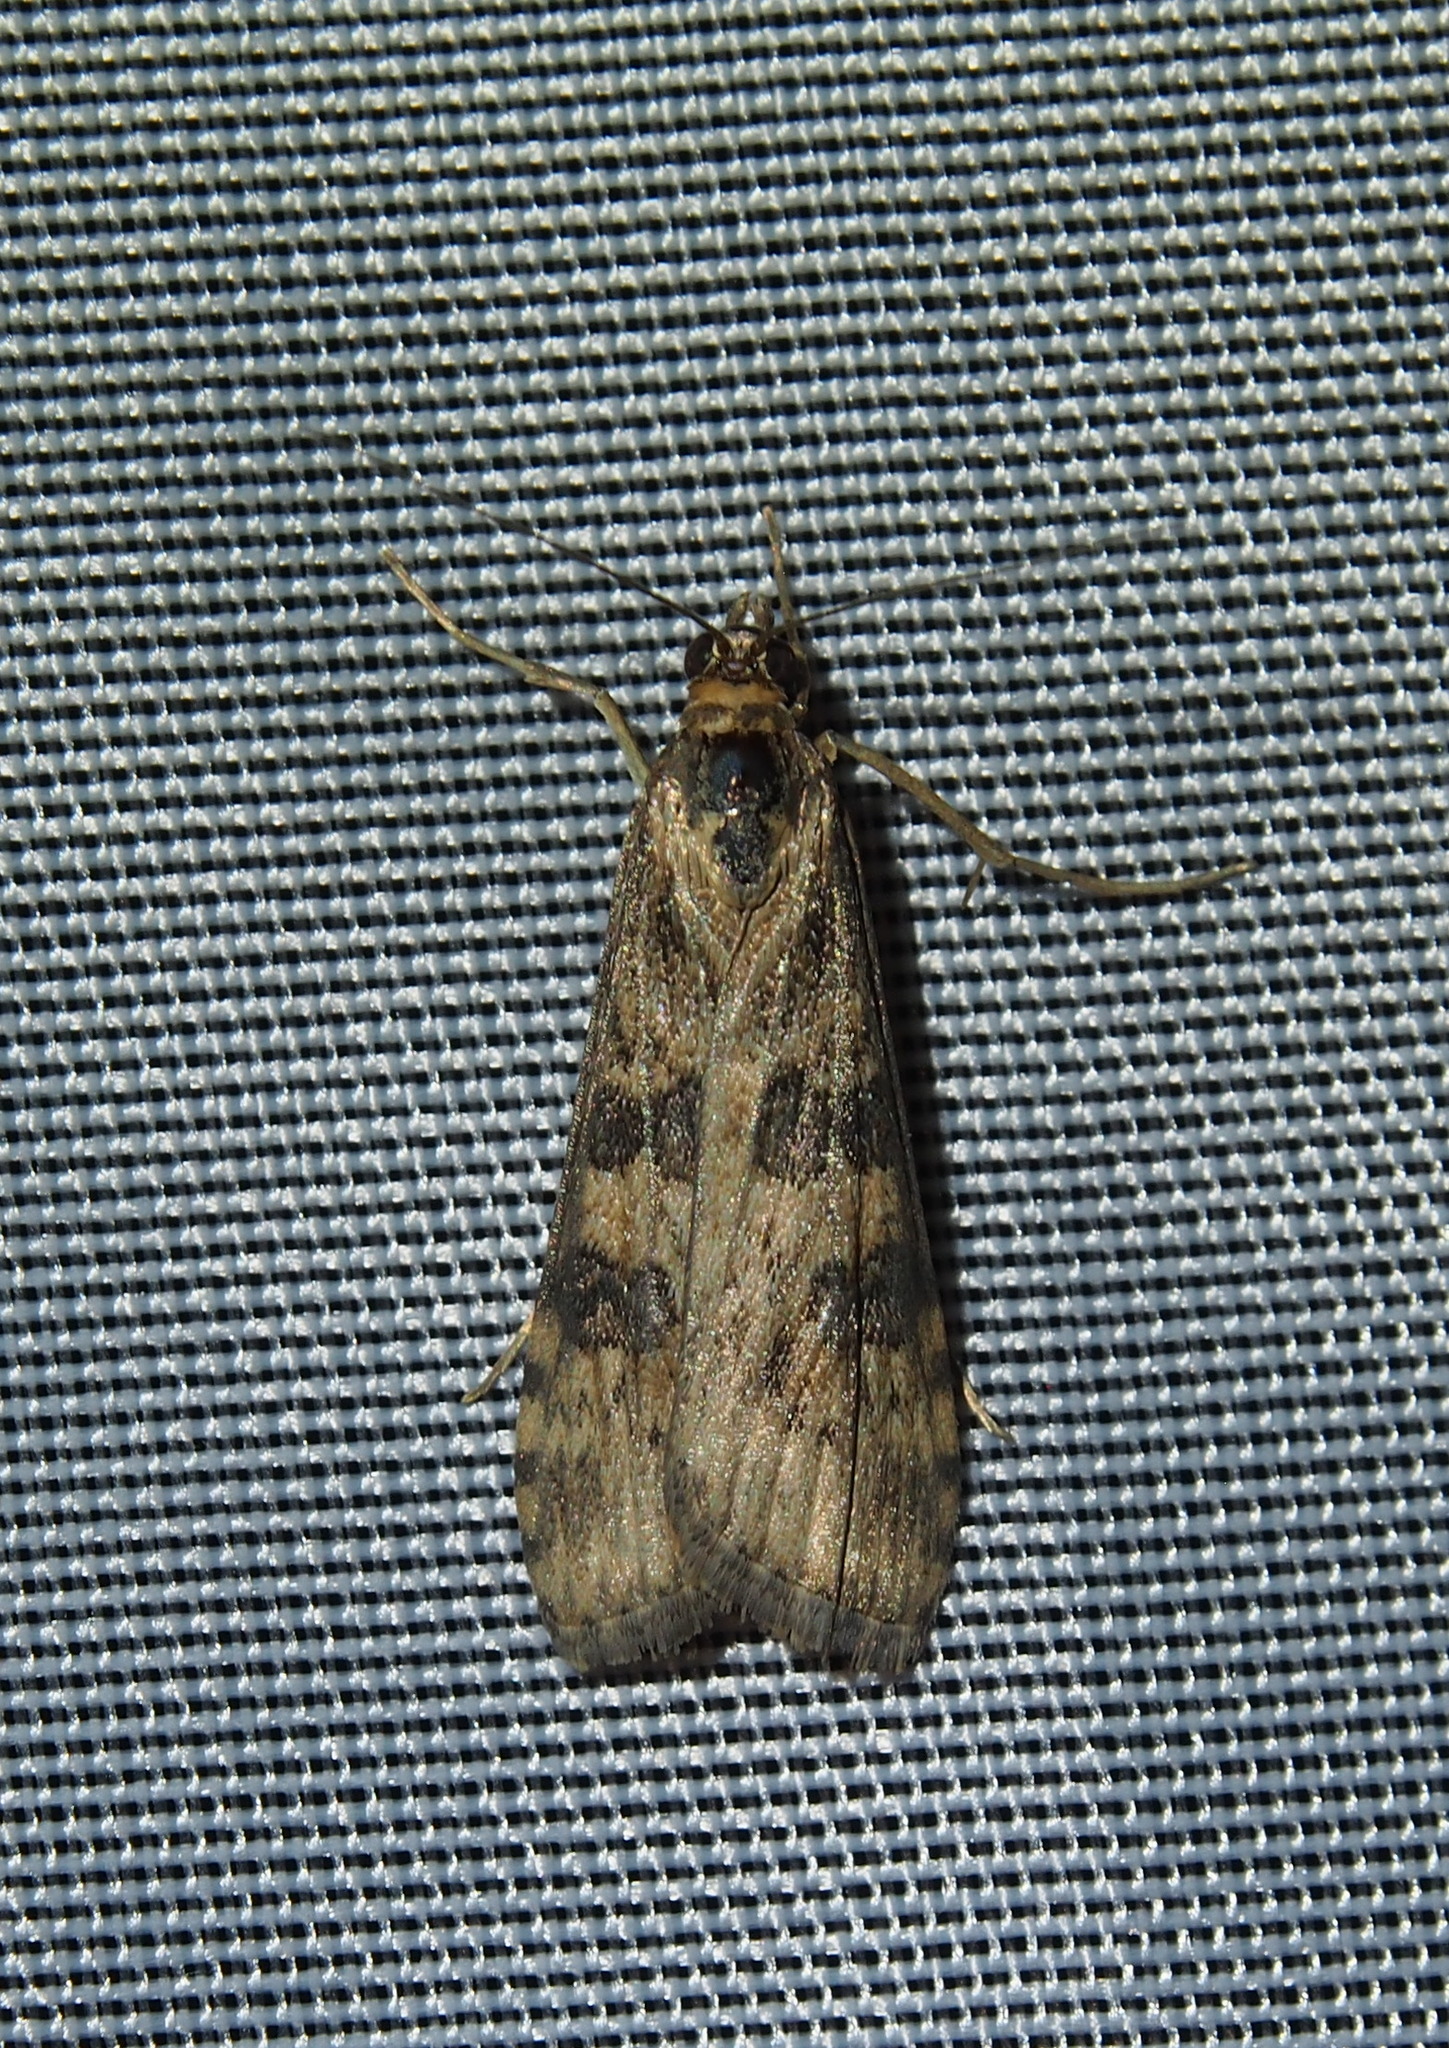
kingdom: Animalia
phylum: Arthropoda
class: Insecta
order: Lepidoptera
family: Crambidae
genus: Nomophila
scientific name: Nomophila nearctica
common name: American rush veneer
